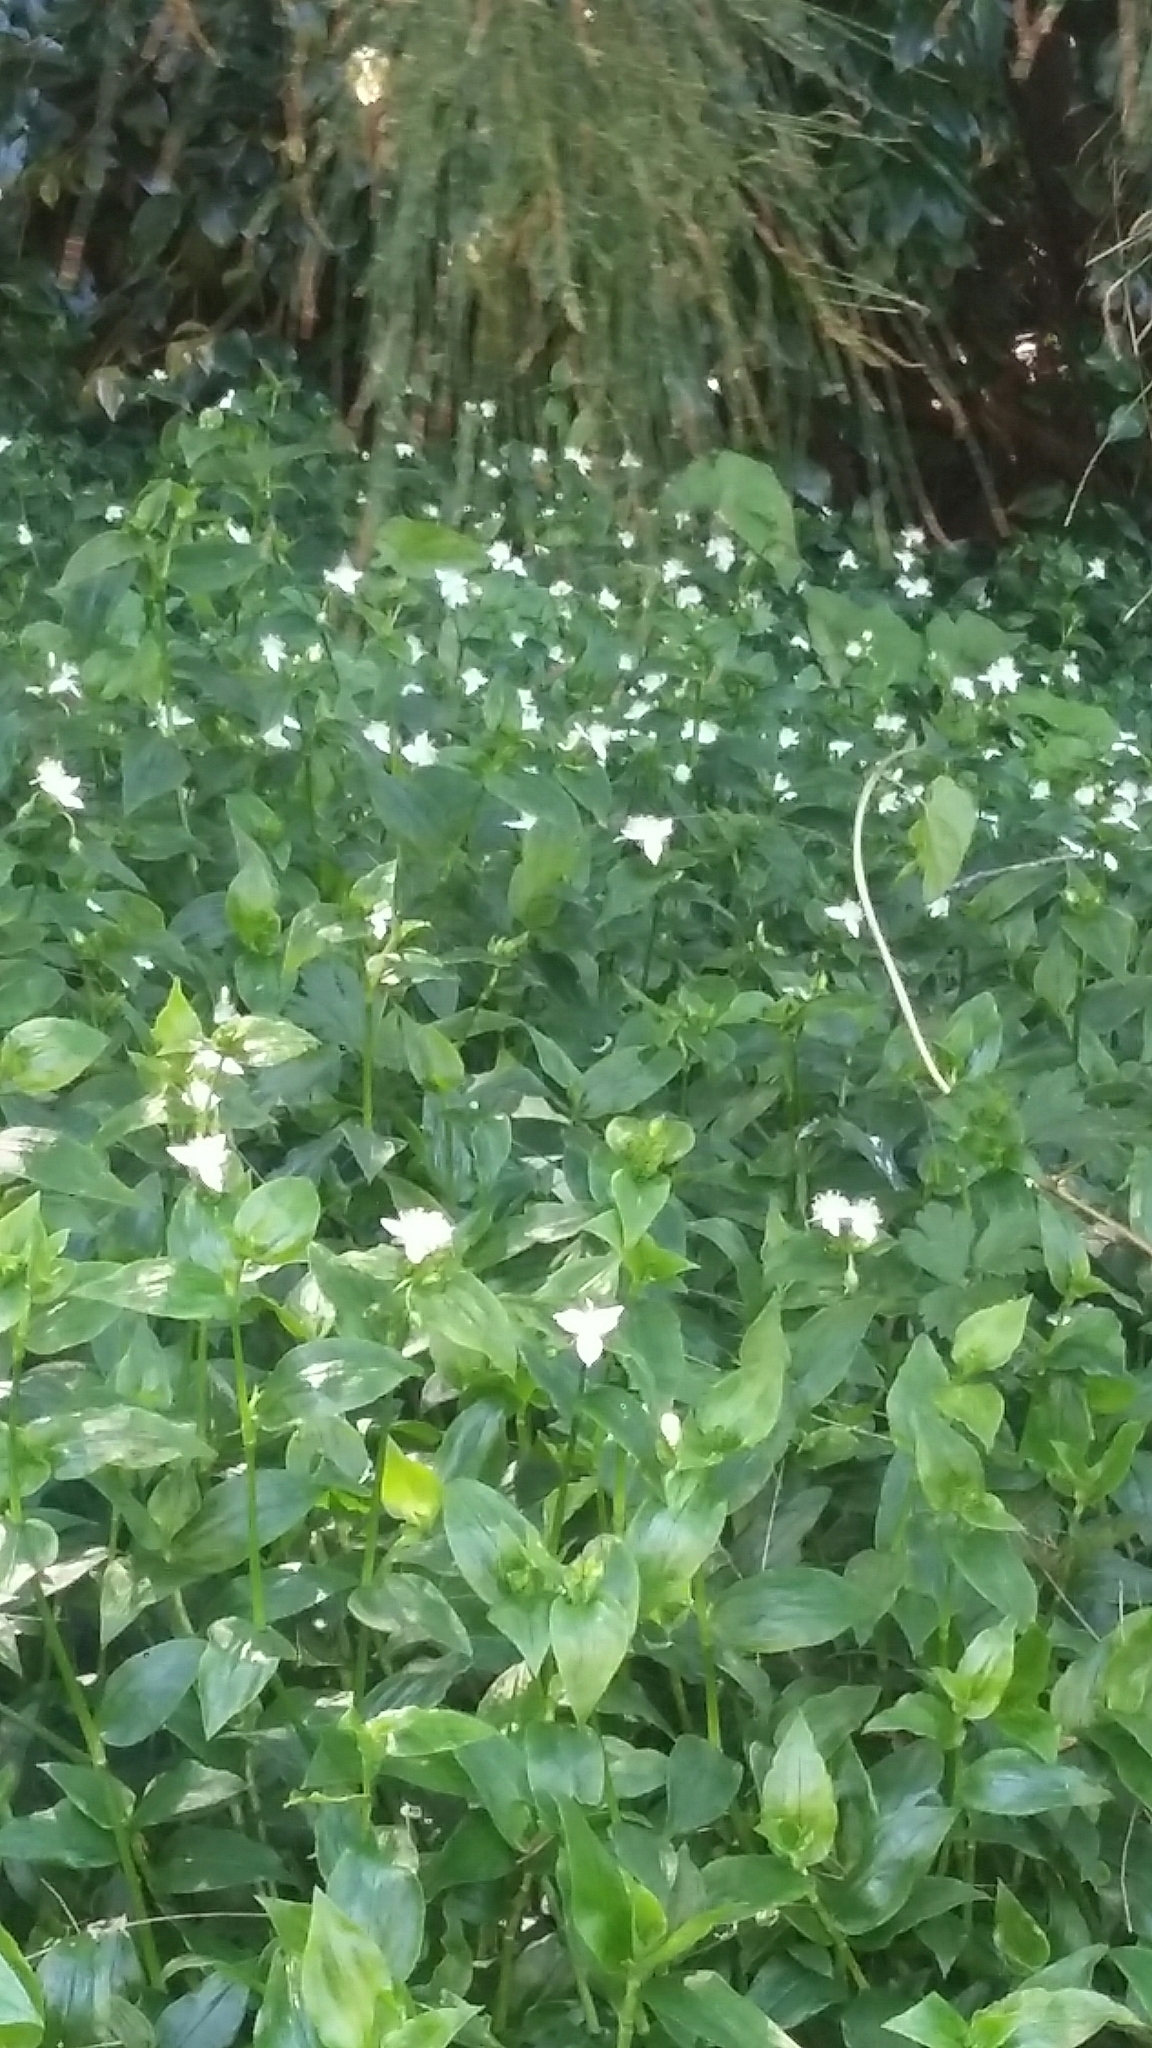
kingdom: Plantae
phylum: Tracheophyta
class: Liliopsida
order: Commelinales
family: Commelinaceae
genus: Tradescantia
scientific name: Tradescantia fluminensis
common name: Wandering-jew
